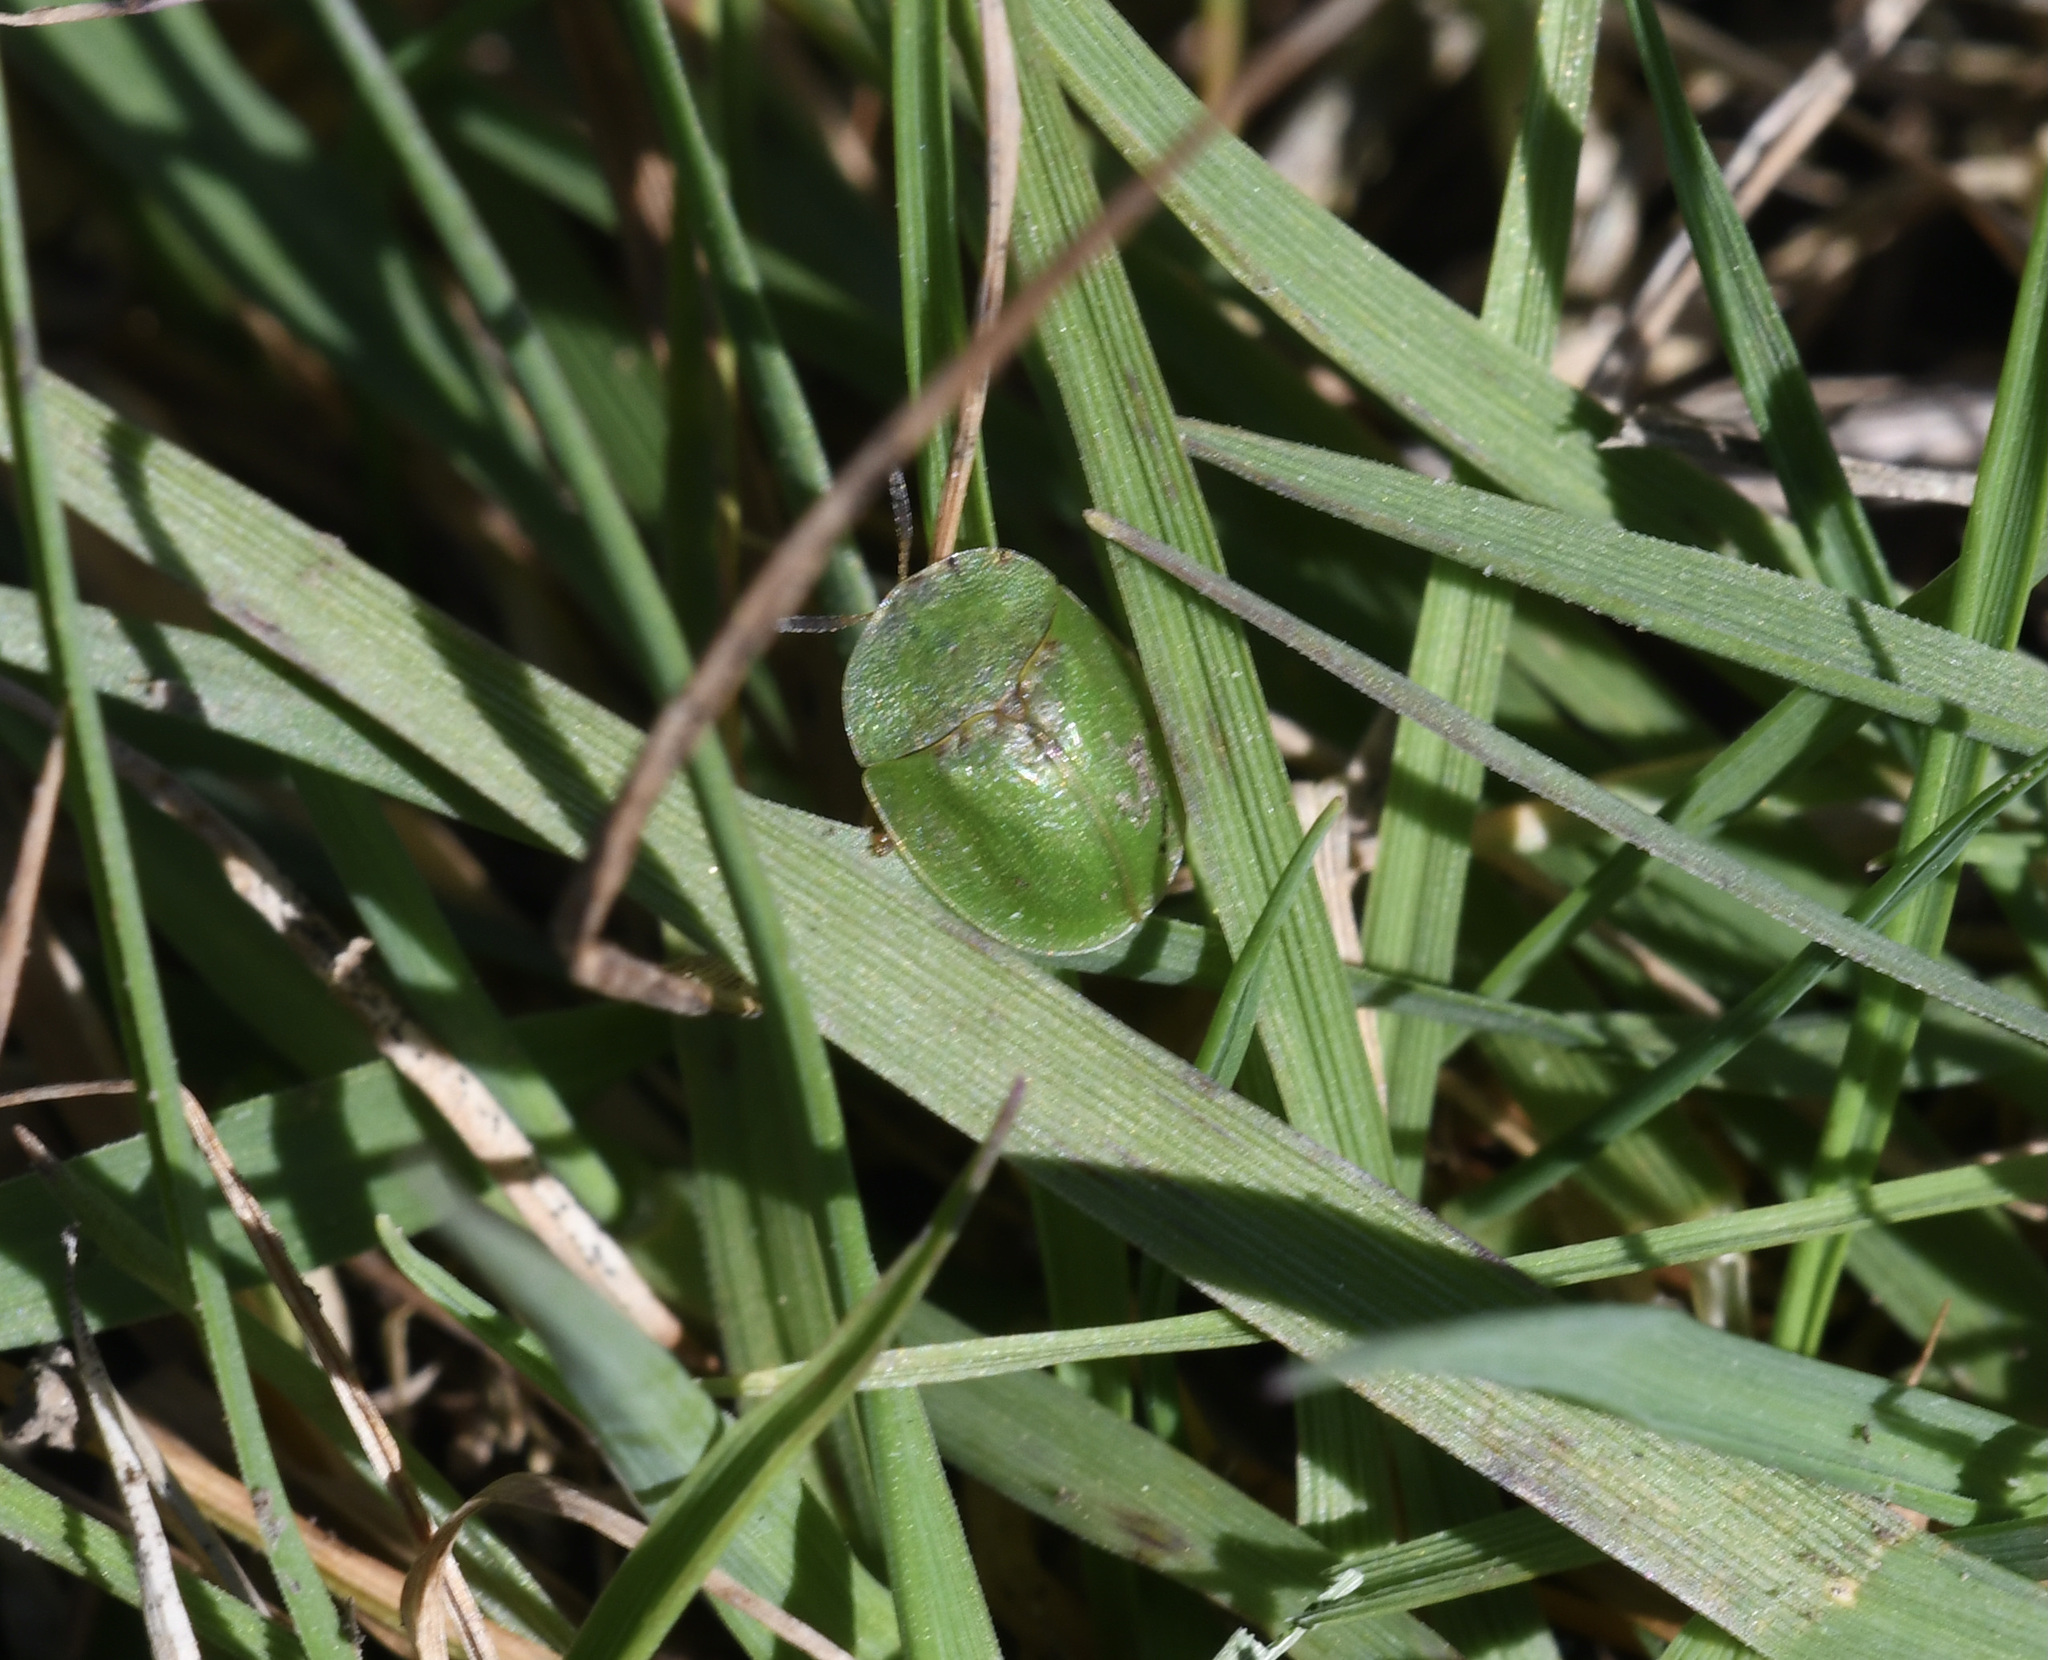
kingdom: Animalia
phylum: Arthropoda
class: Insecta
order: Coleoptera
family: Chrysomelidae
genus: Cassida
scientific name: Cassida rubiginosa
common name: Thistle tortoise beetle
